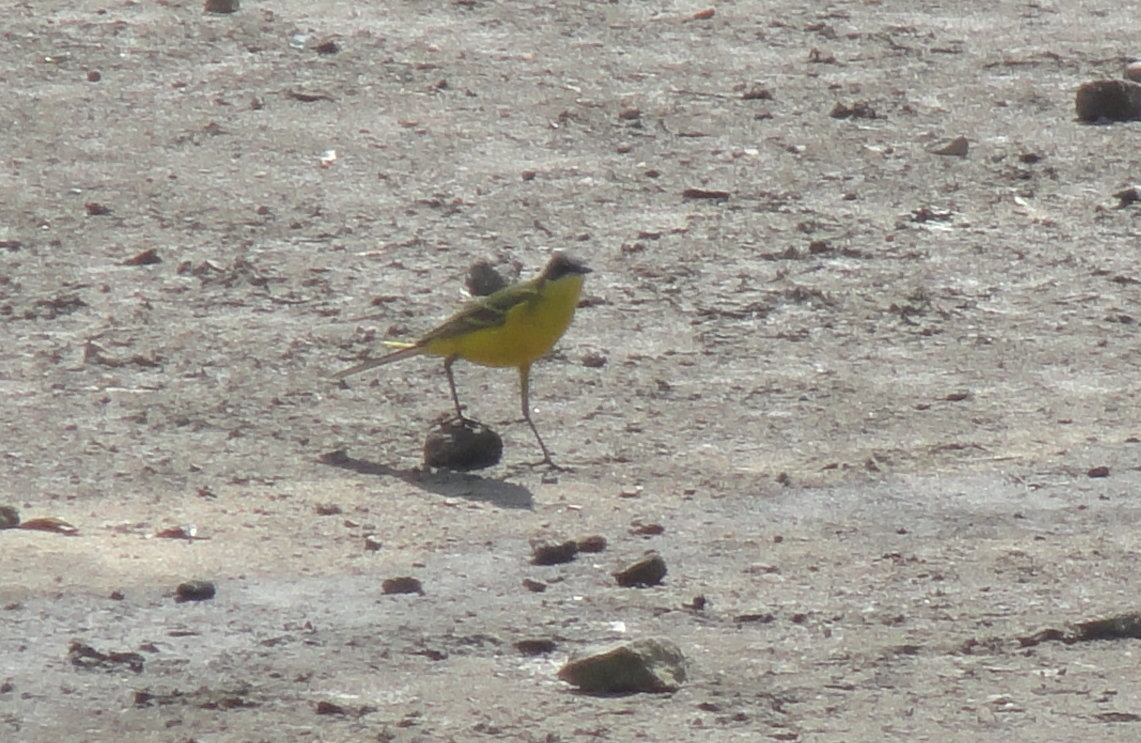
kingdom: Animalia
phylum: Chordata
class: Aves
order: Passeriformes
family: Motacillidae
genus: Motacilla
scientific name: Motacilla flava
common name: Western yellow wagtail
